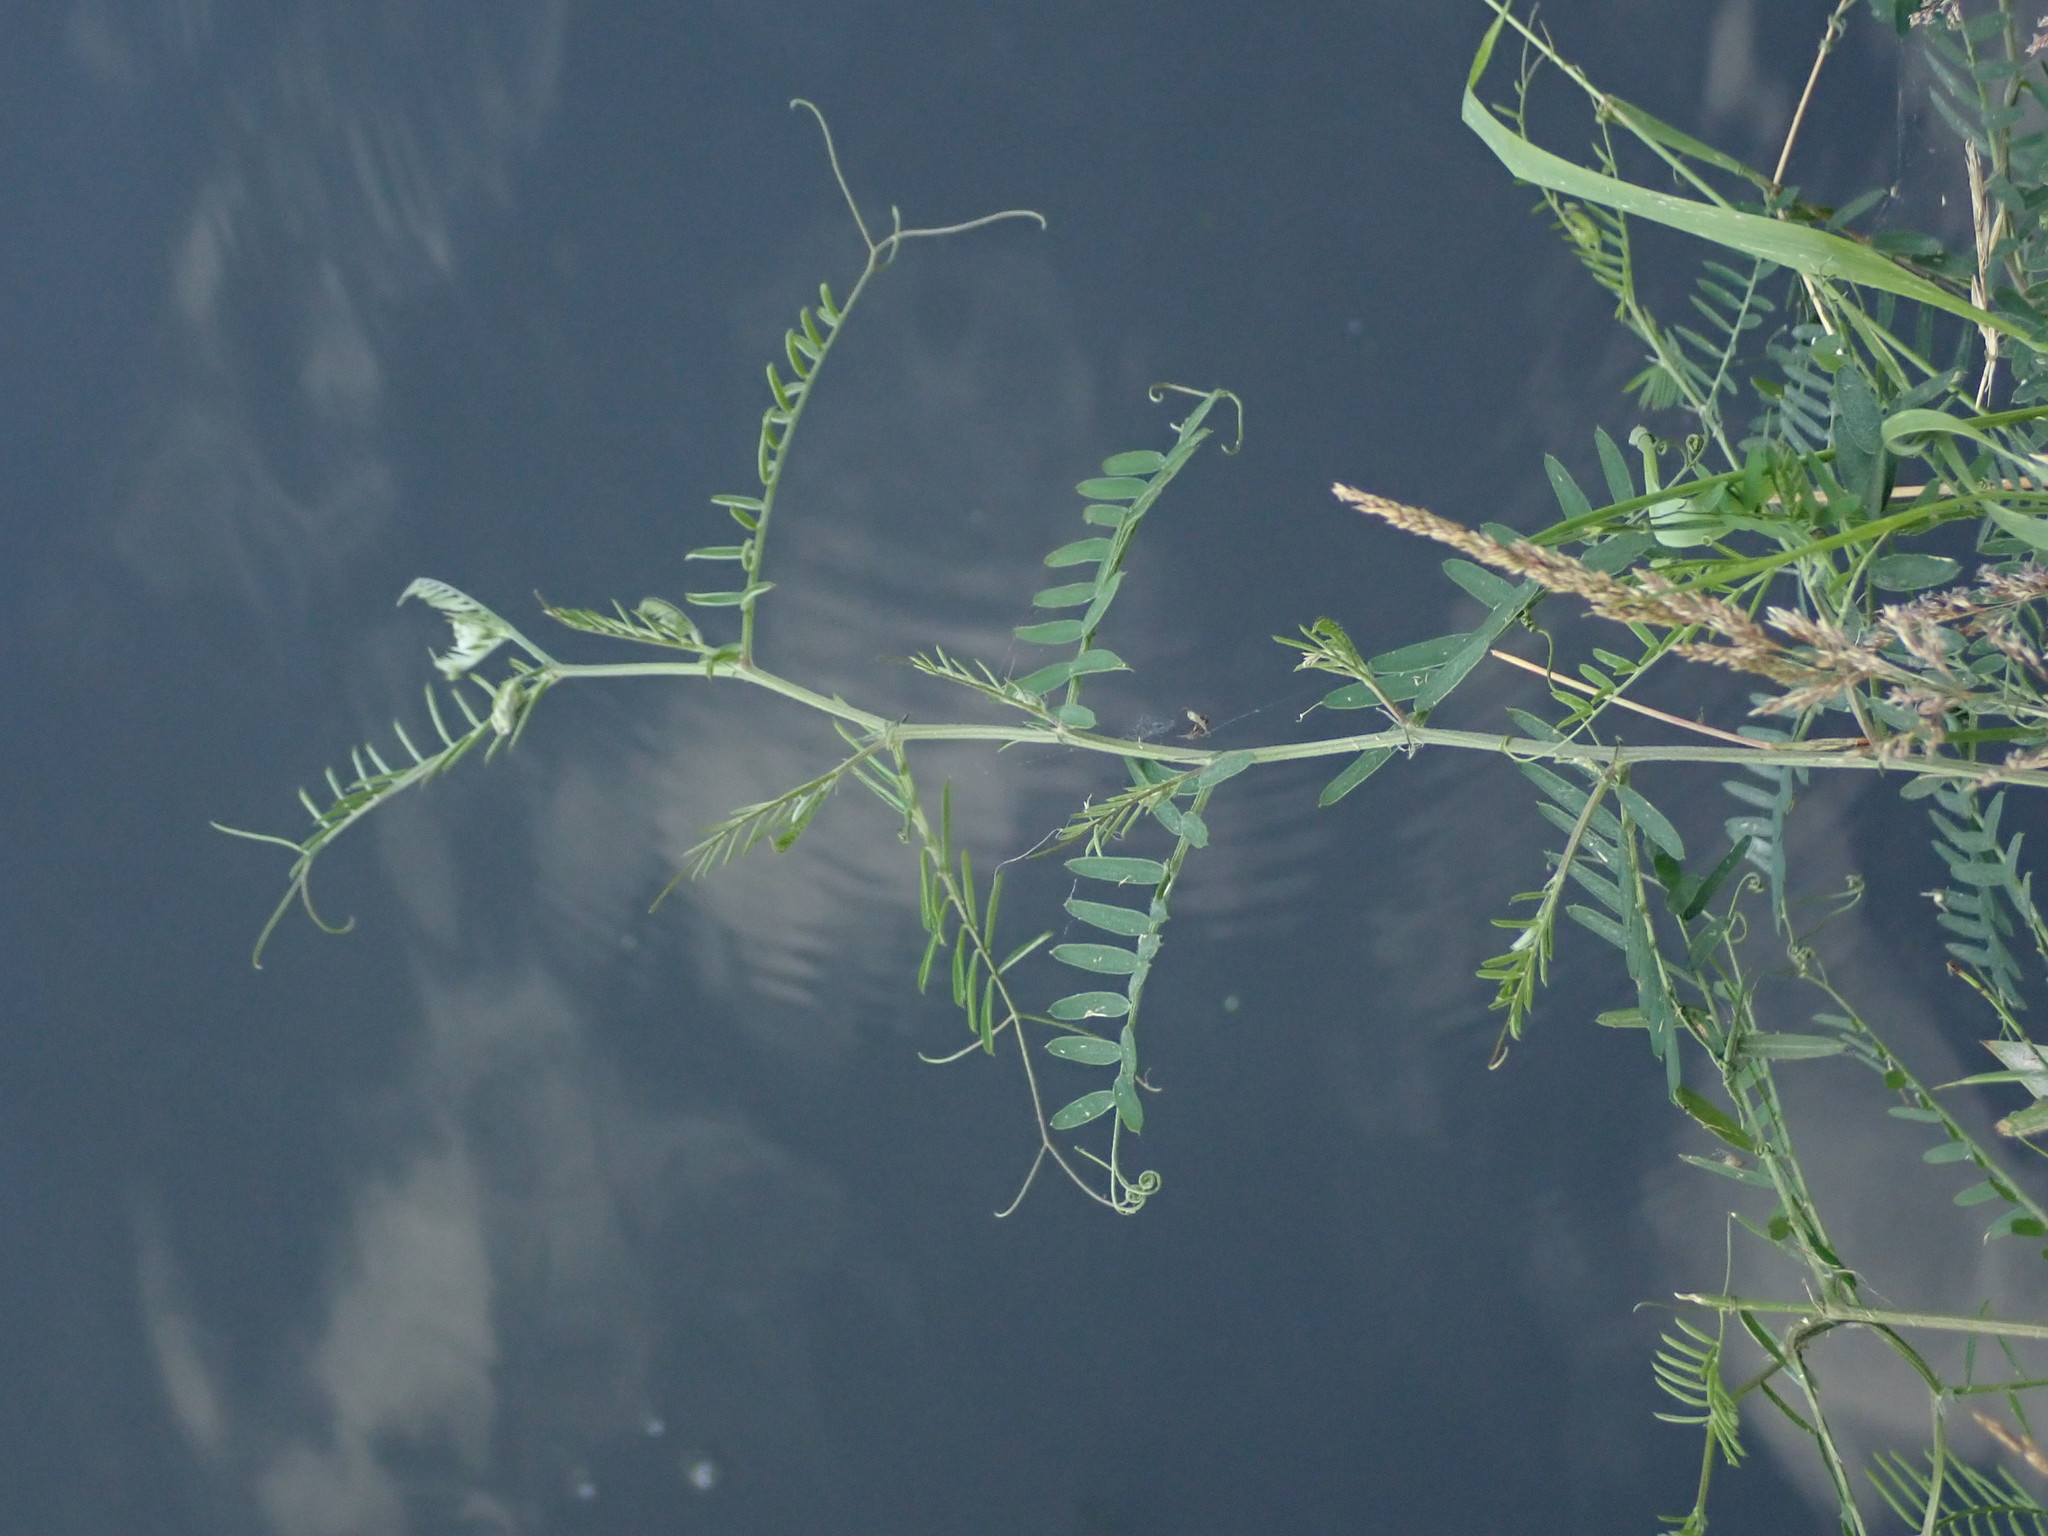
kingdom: Plantae
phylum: Tracheophyta
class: Magnoliopsida
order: Fabales
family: Fabaceae
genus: Vicia
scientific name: Vicia cracca
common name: Bird vetch
